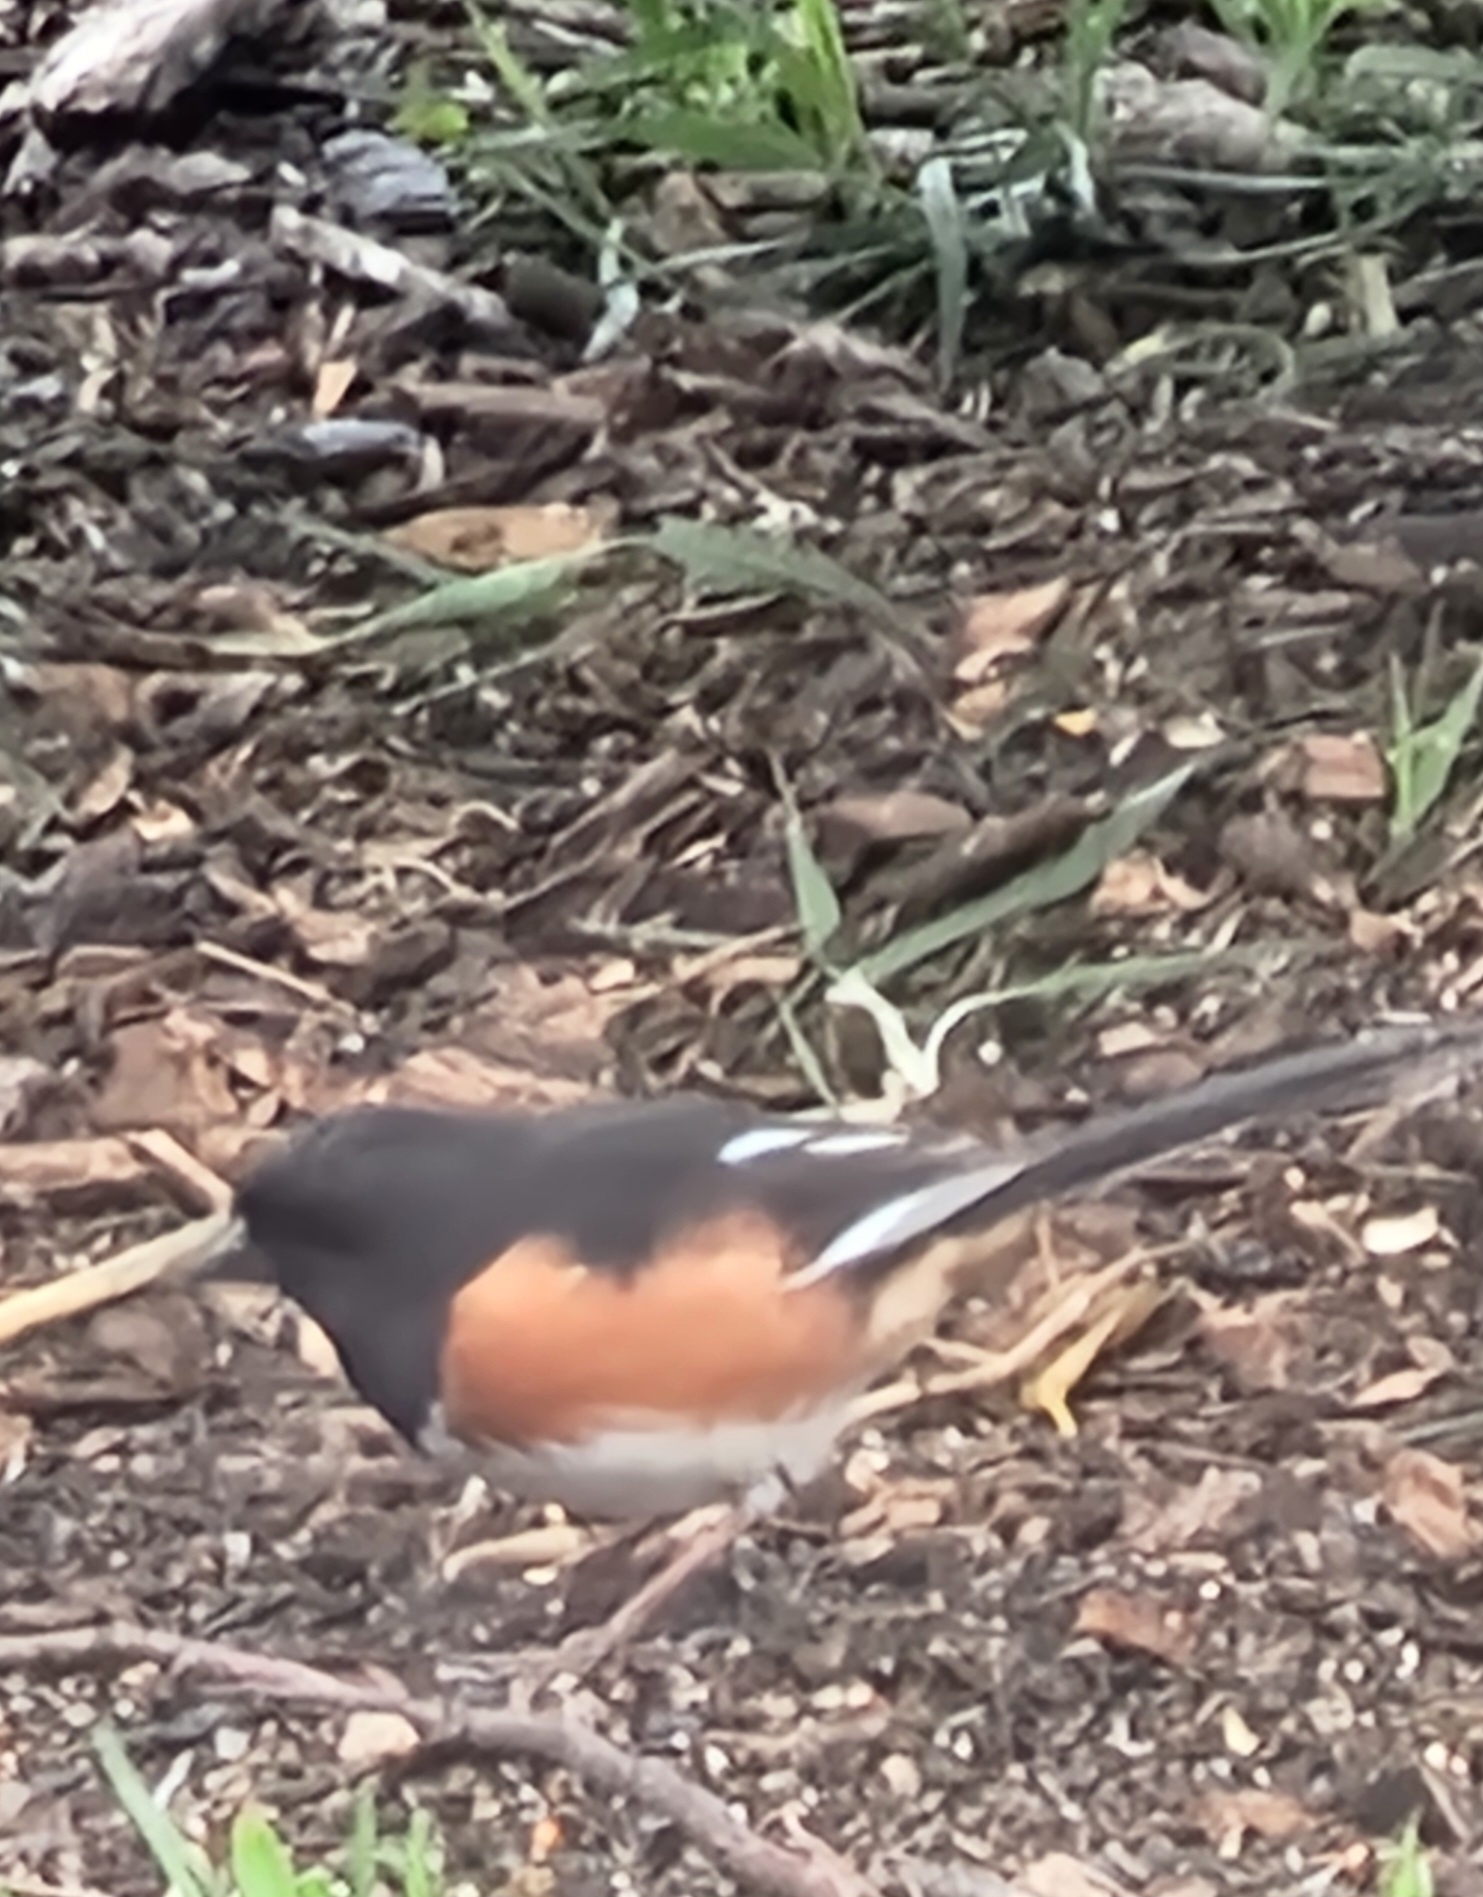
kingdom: Animalia
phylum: Chordata
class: Aves
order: Passeriformes
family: Passerellidae
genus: Pipilo
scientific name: Pipilo erythrophthalmus
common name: Eastern towhee
